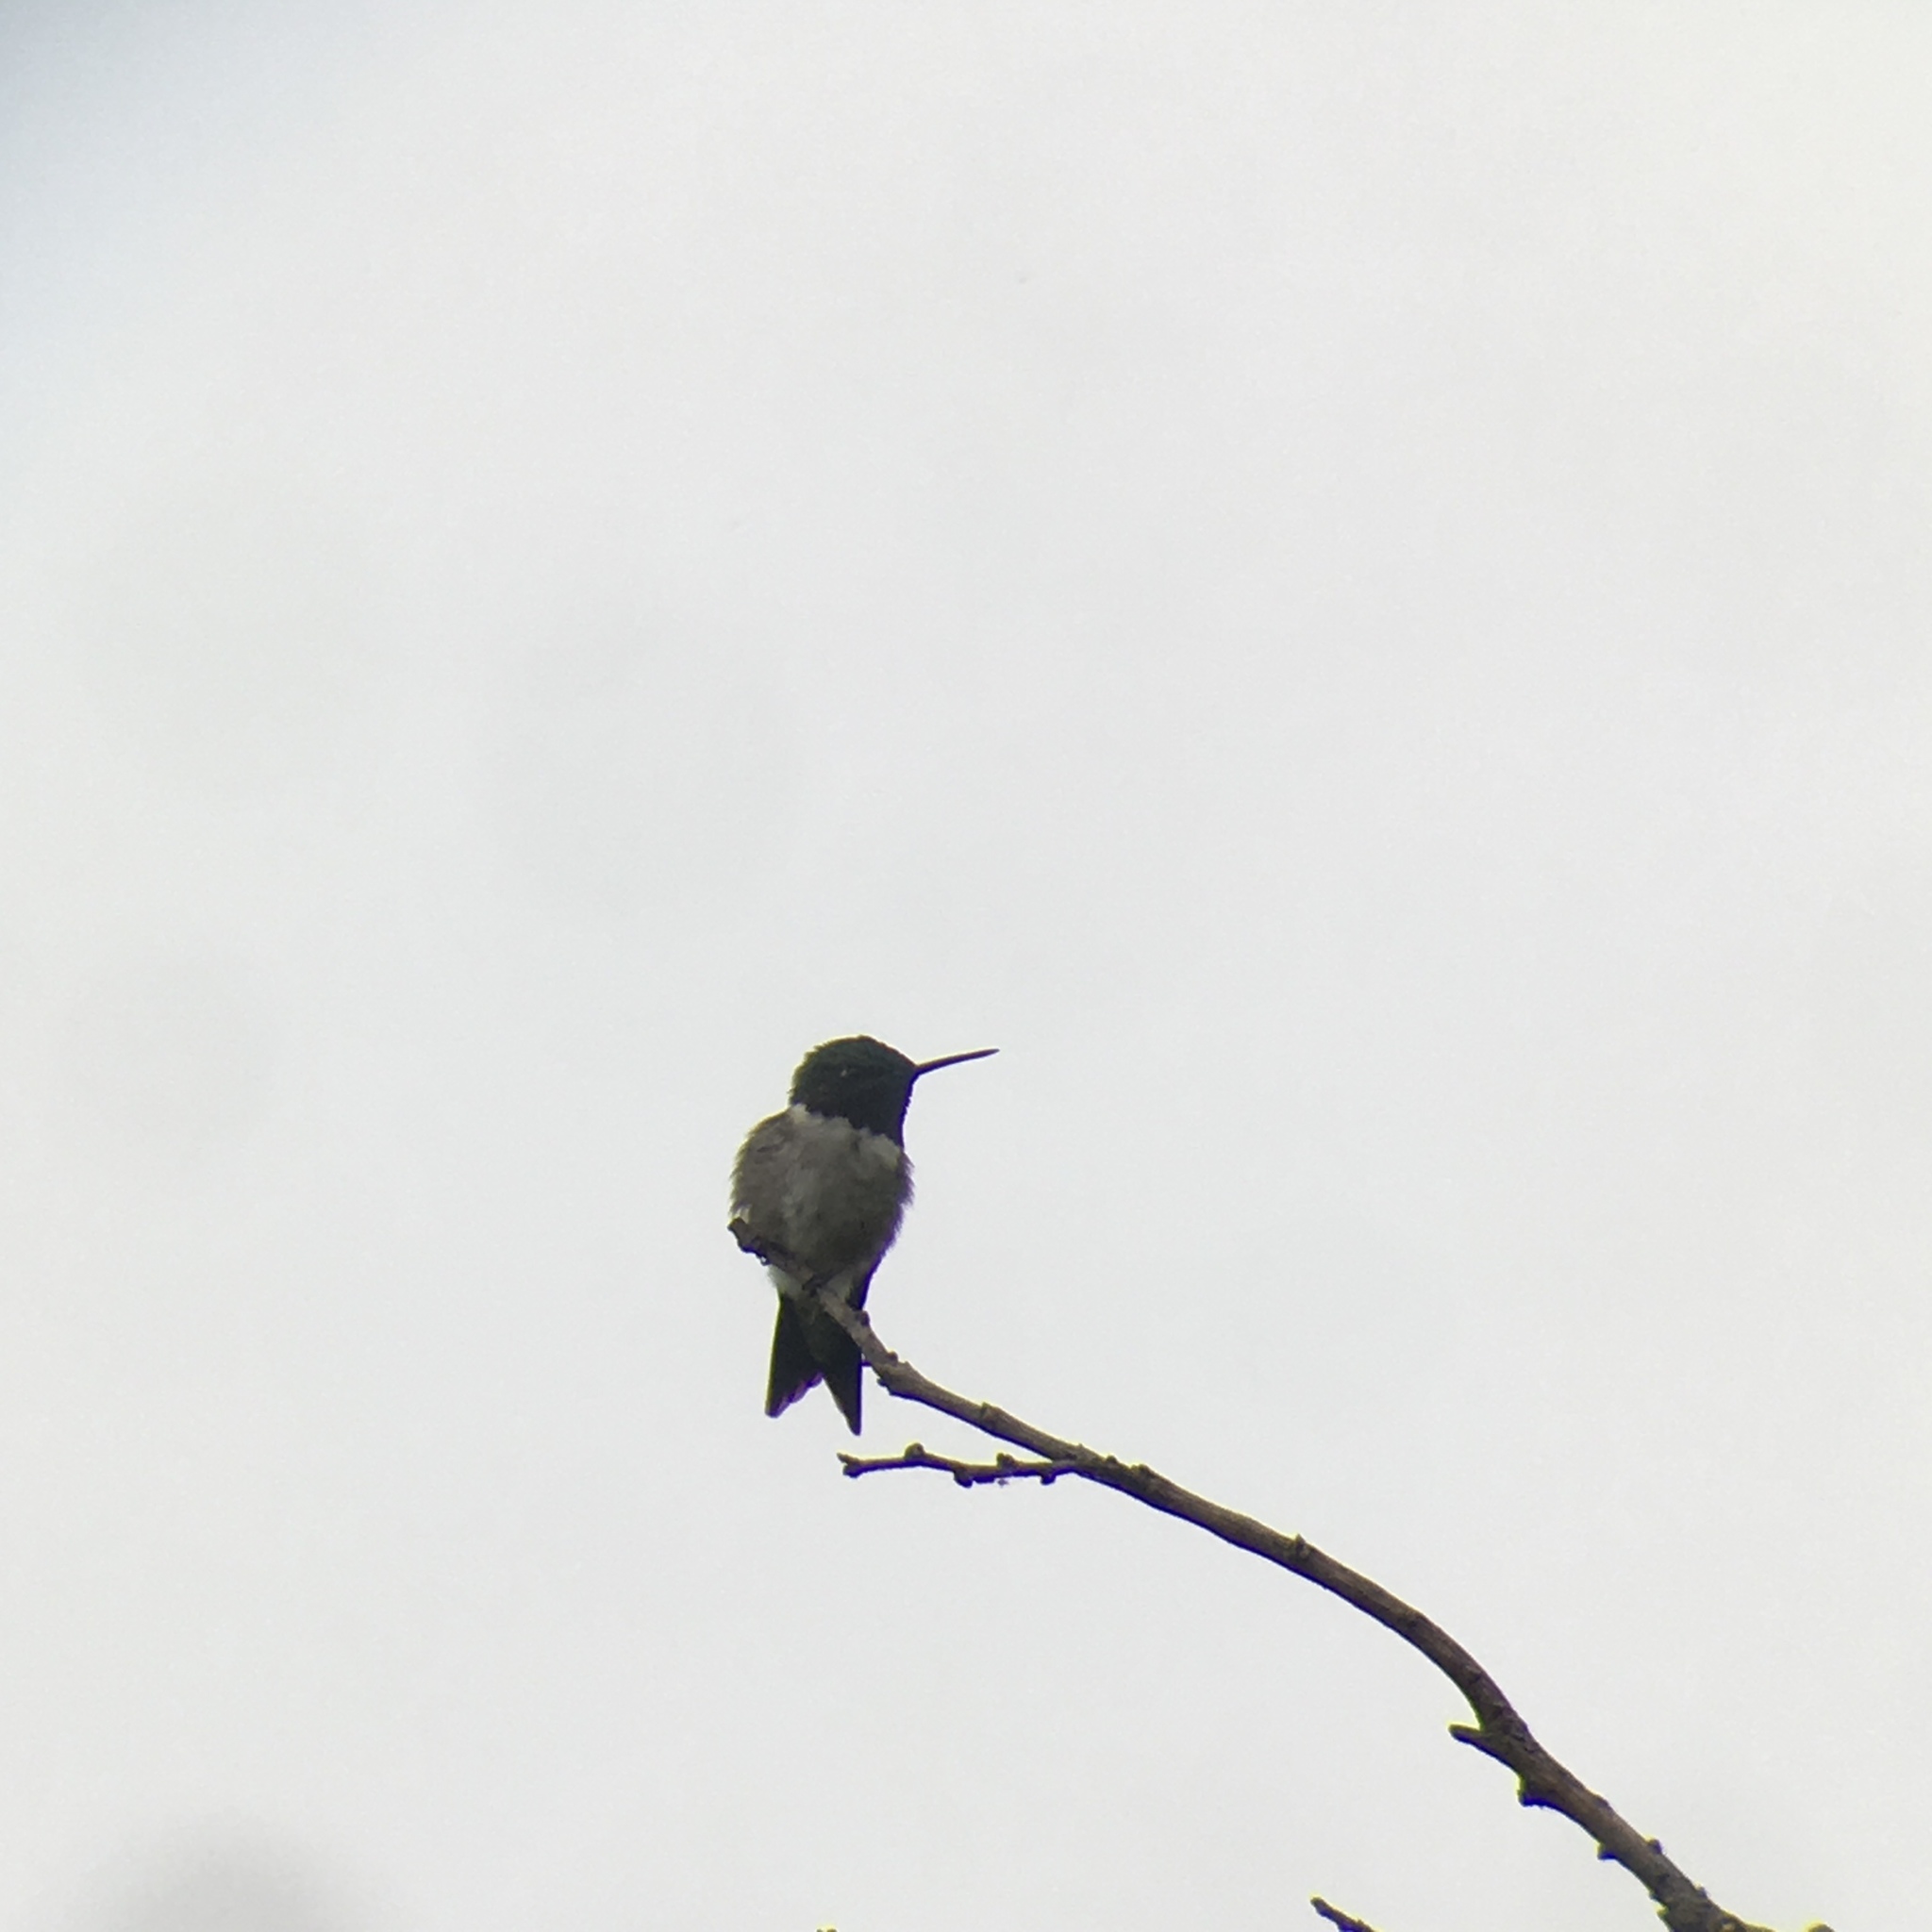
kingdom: Animalia
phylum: Chordata
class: Aves
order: Apodiformes
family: Trochilidae
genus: Archilochus
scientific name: Archilochus colubris
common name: Ruby-throated hummingbird
